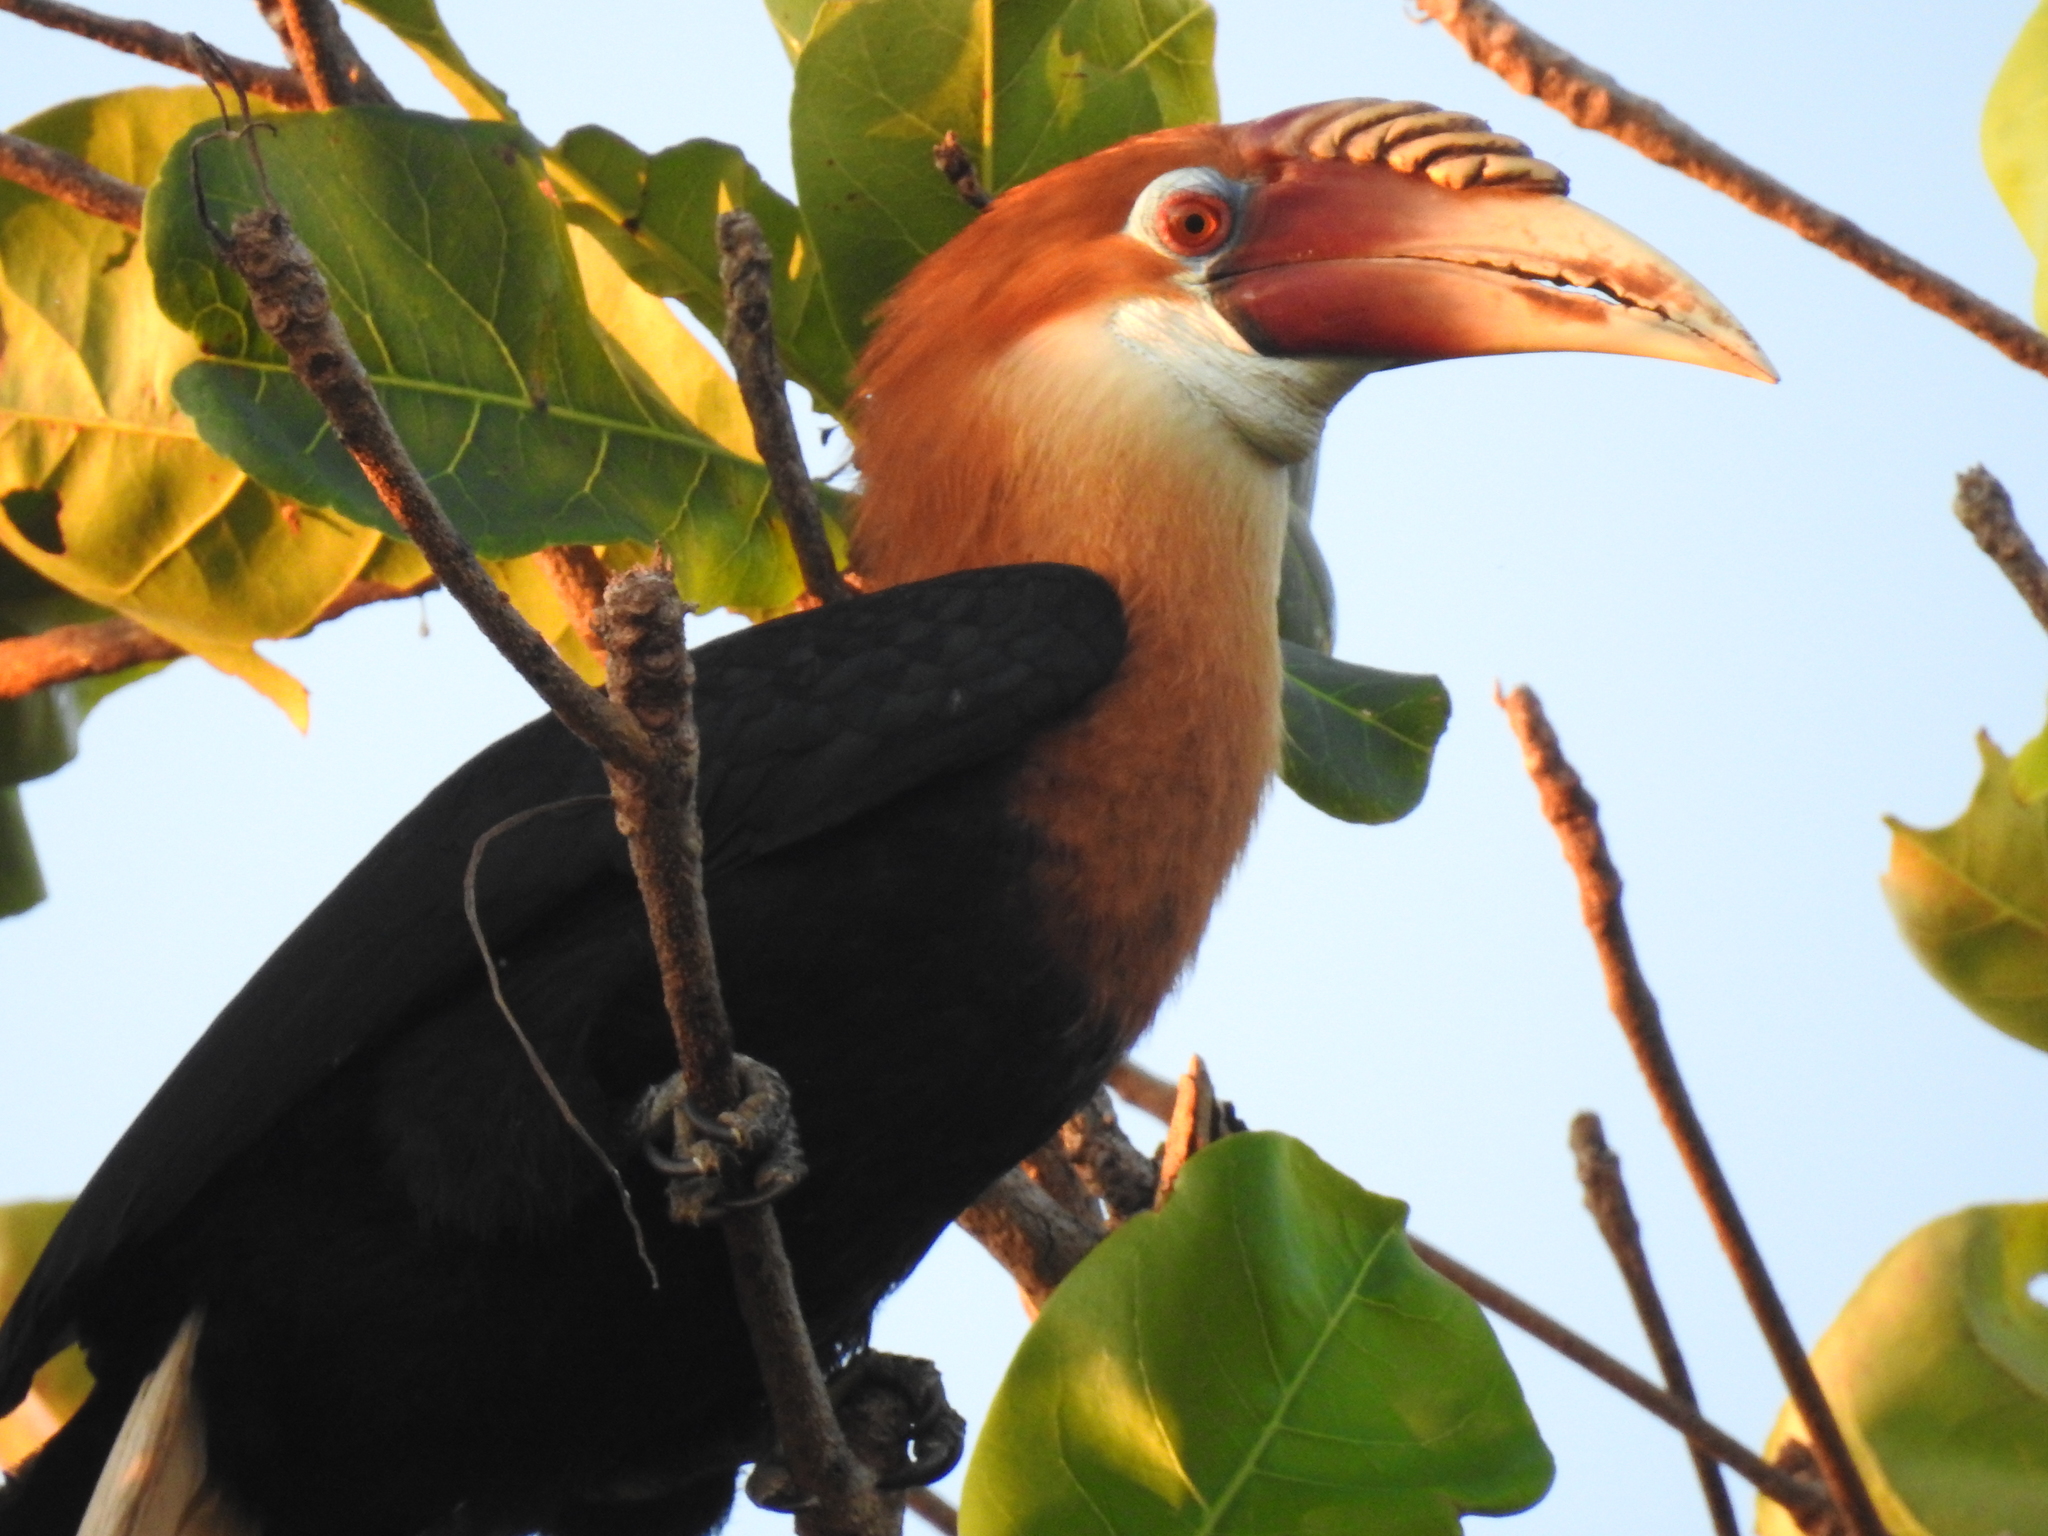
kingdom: Animalia
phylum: Chordata
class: Aves
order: Bucerotiformes
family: Bucerotidae
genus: Rhyticeros
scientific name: Rhyticeros narcondami
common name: Narcondam hornbill
